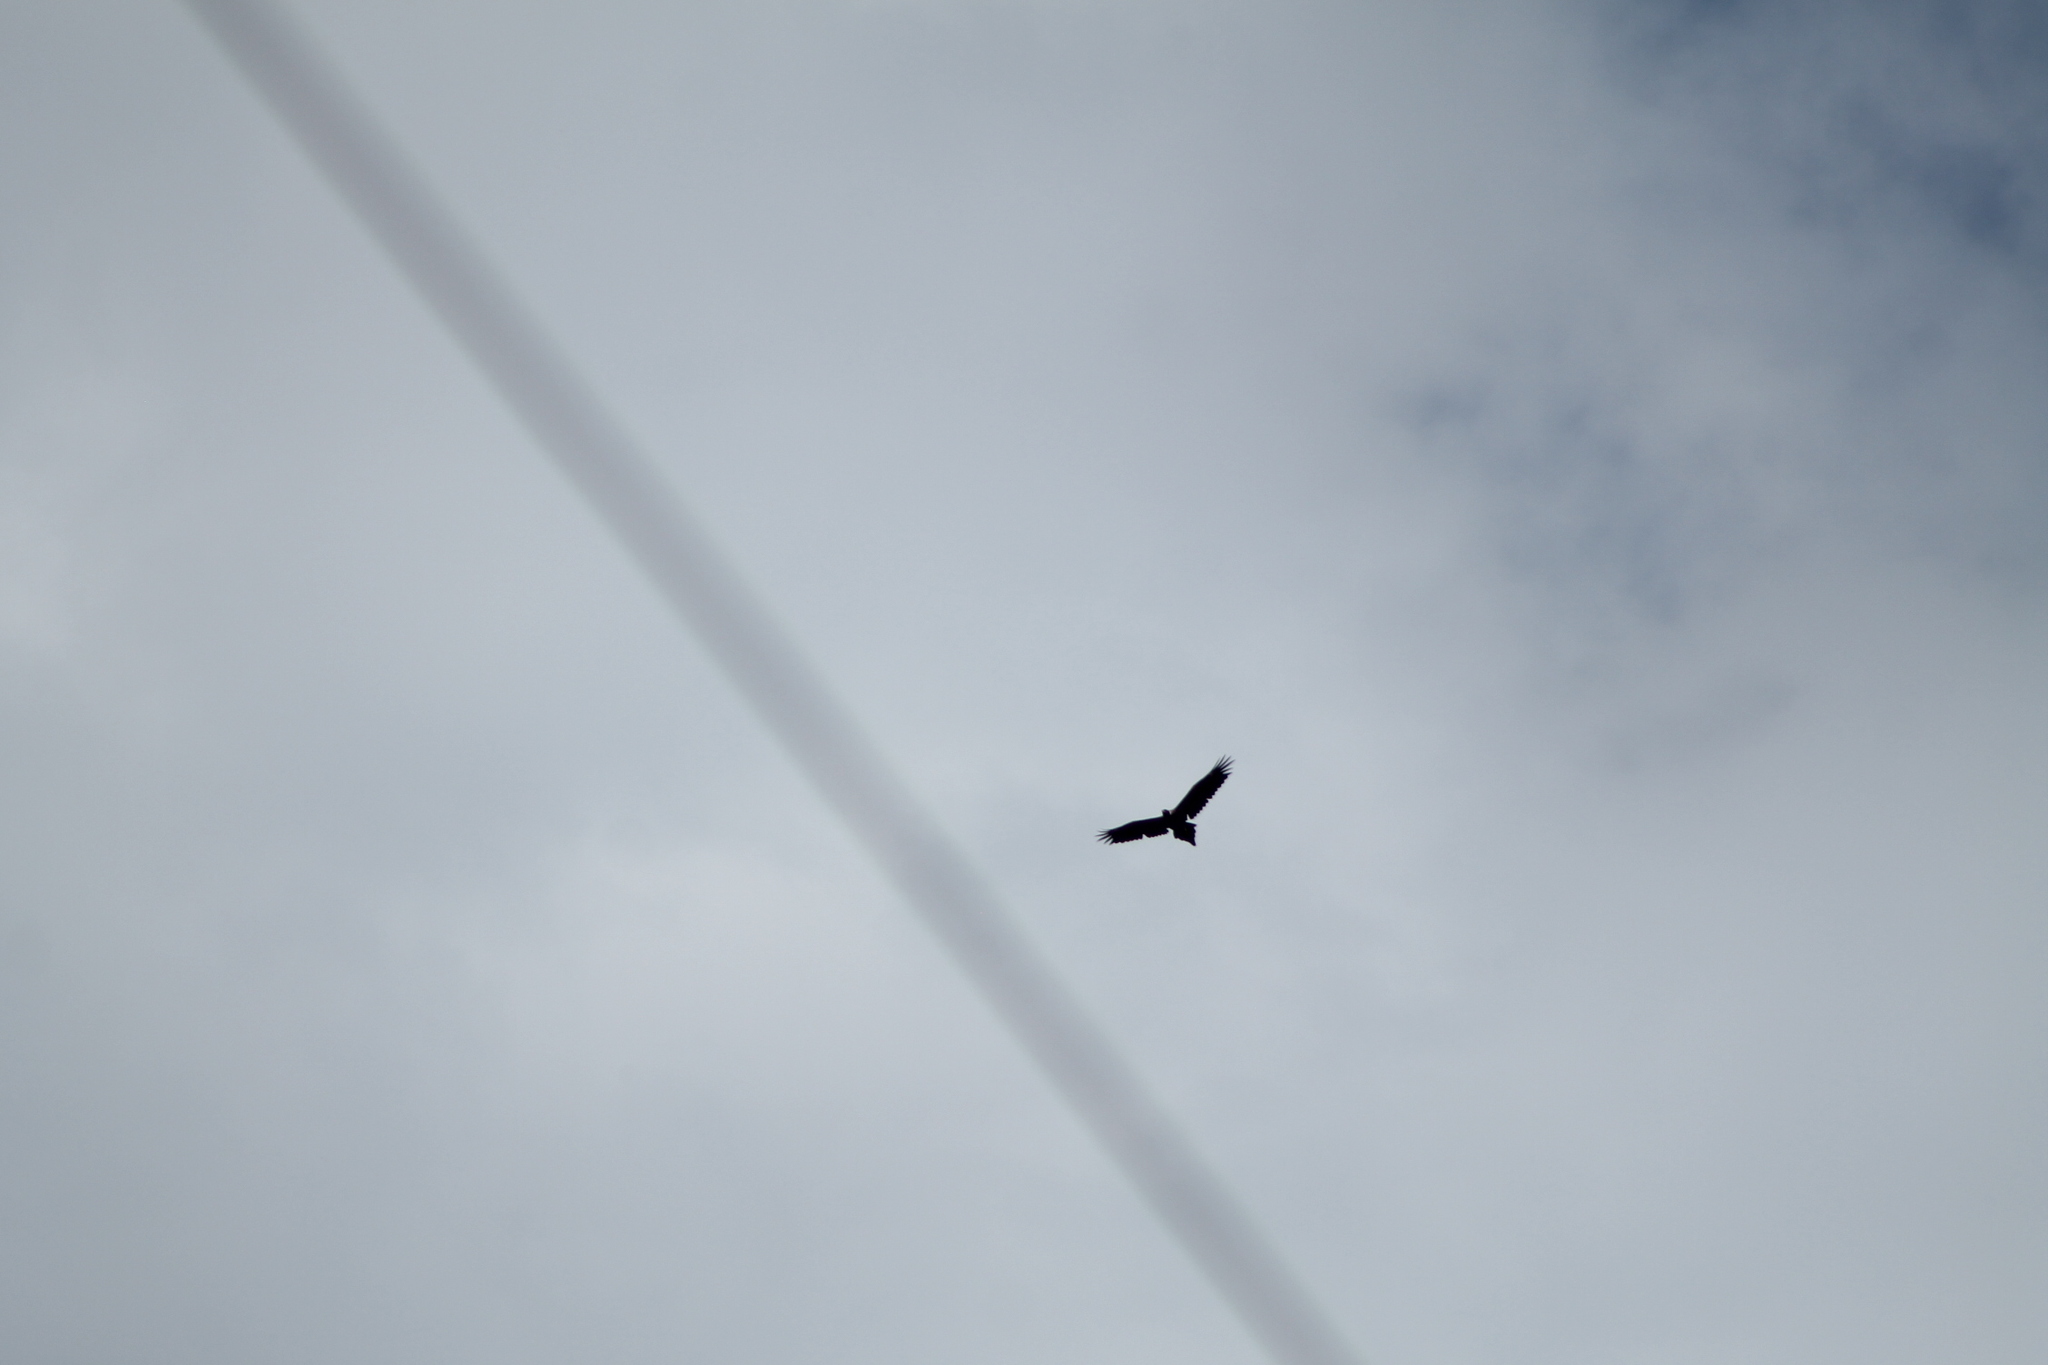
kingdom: Animalia
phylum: Chordata
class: Aves
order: Accipitriformes
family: Accipitridae
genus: Aquila
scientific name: Aquila audax
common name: Wedge-tailed eagle
